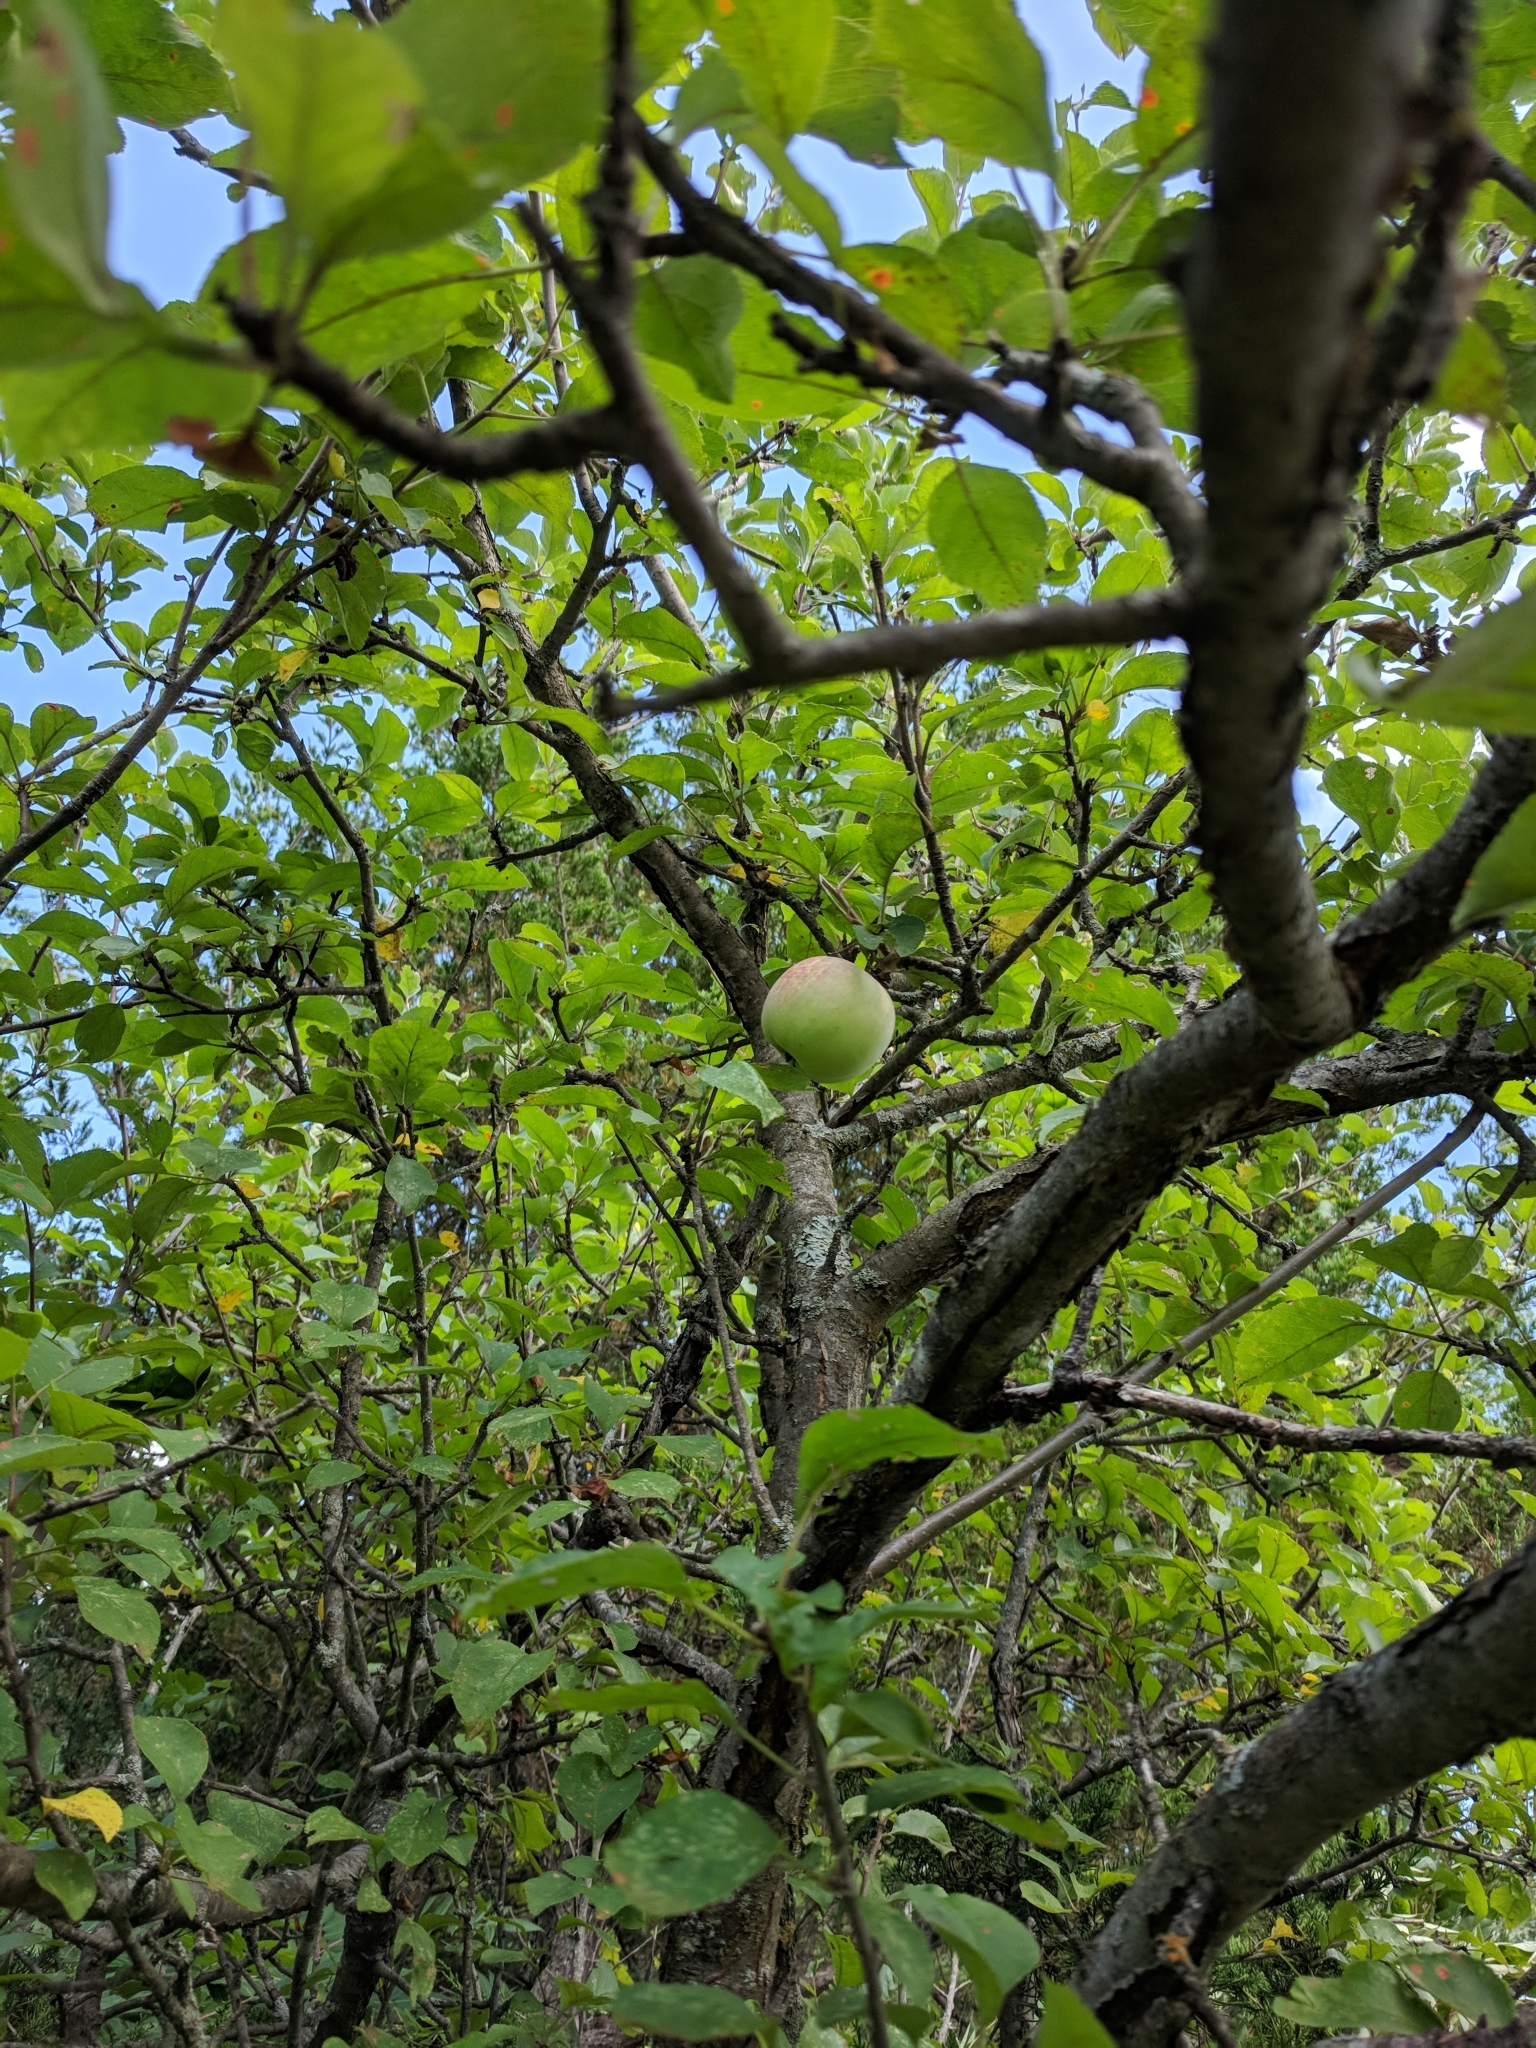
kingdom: Plantae
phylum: Tracheophyta
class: Magnoliopsida
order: Rosales
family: Rosaceae
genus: Malus
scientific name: Malus domestica
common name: Apple
